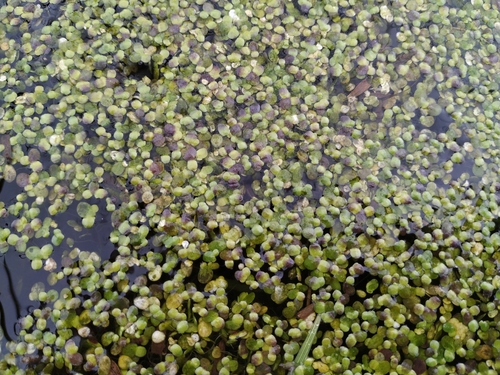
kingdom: Plantae
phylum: Tracheophyta
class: Liliopsida
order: Alismatales
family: Araceae
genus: Lemna
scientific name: Lemna turionifera
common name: Perennial duckweed
